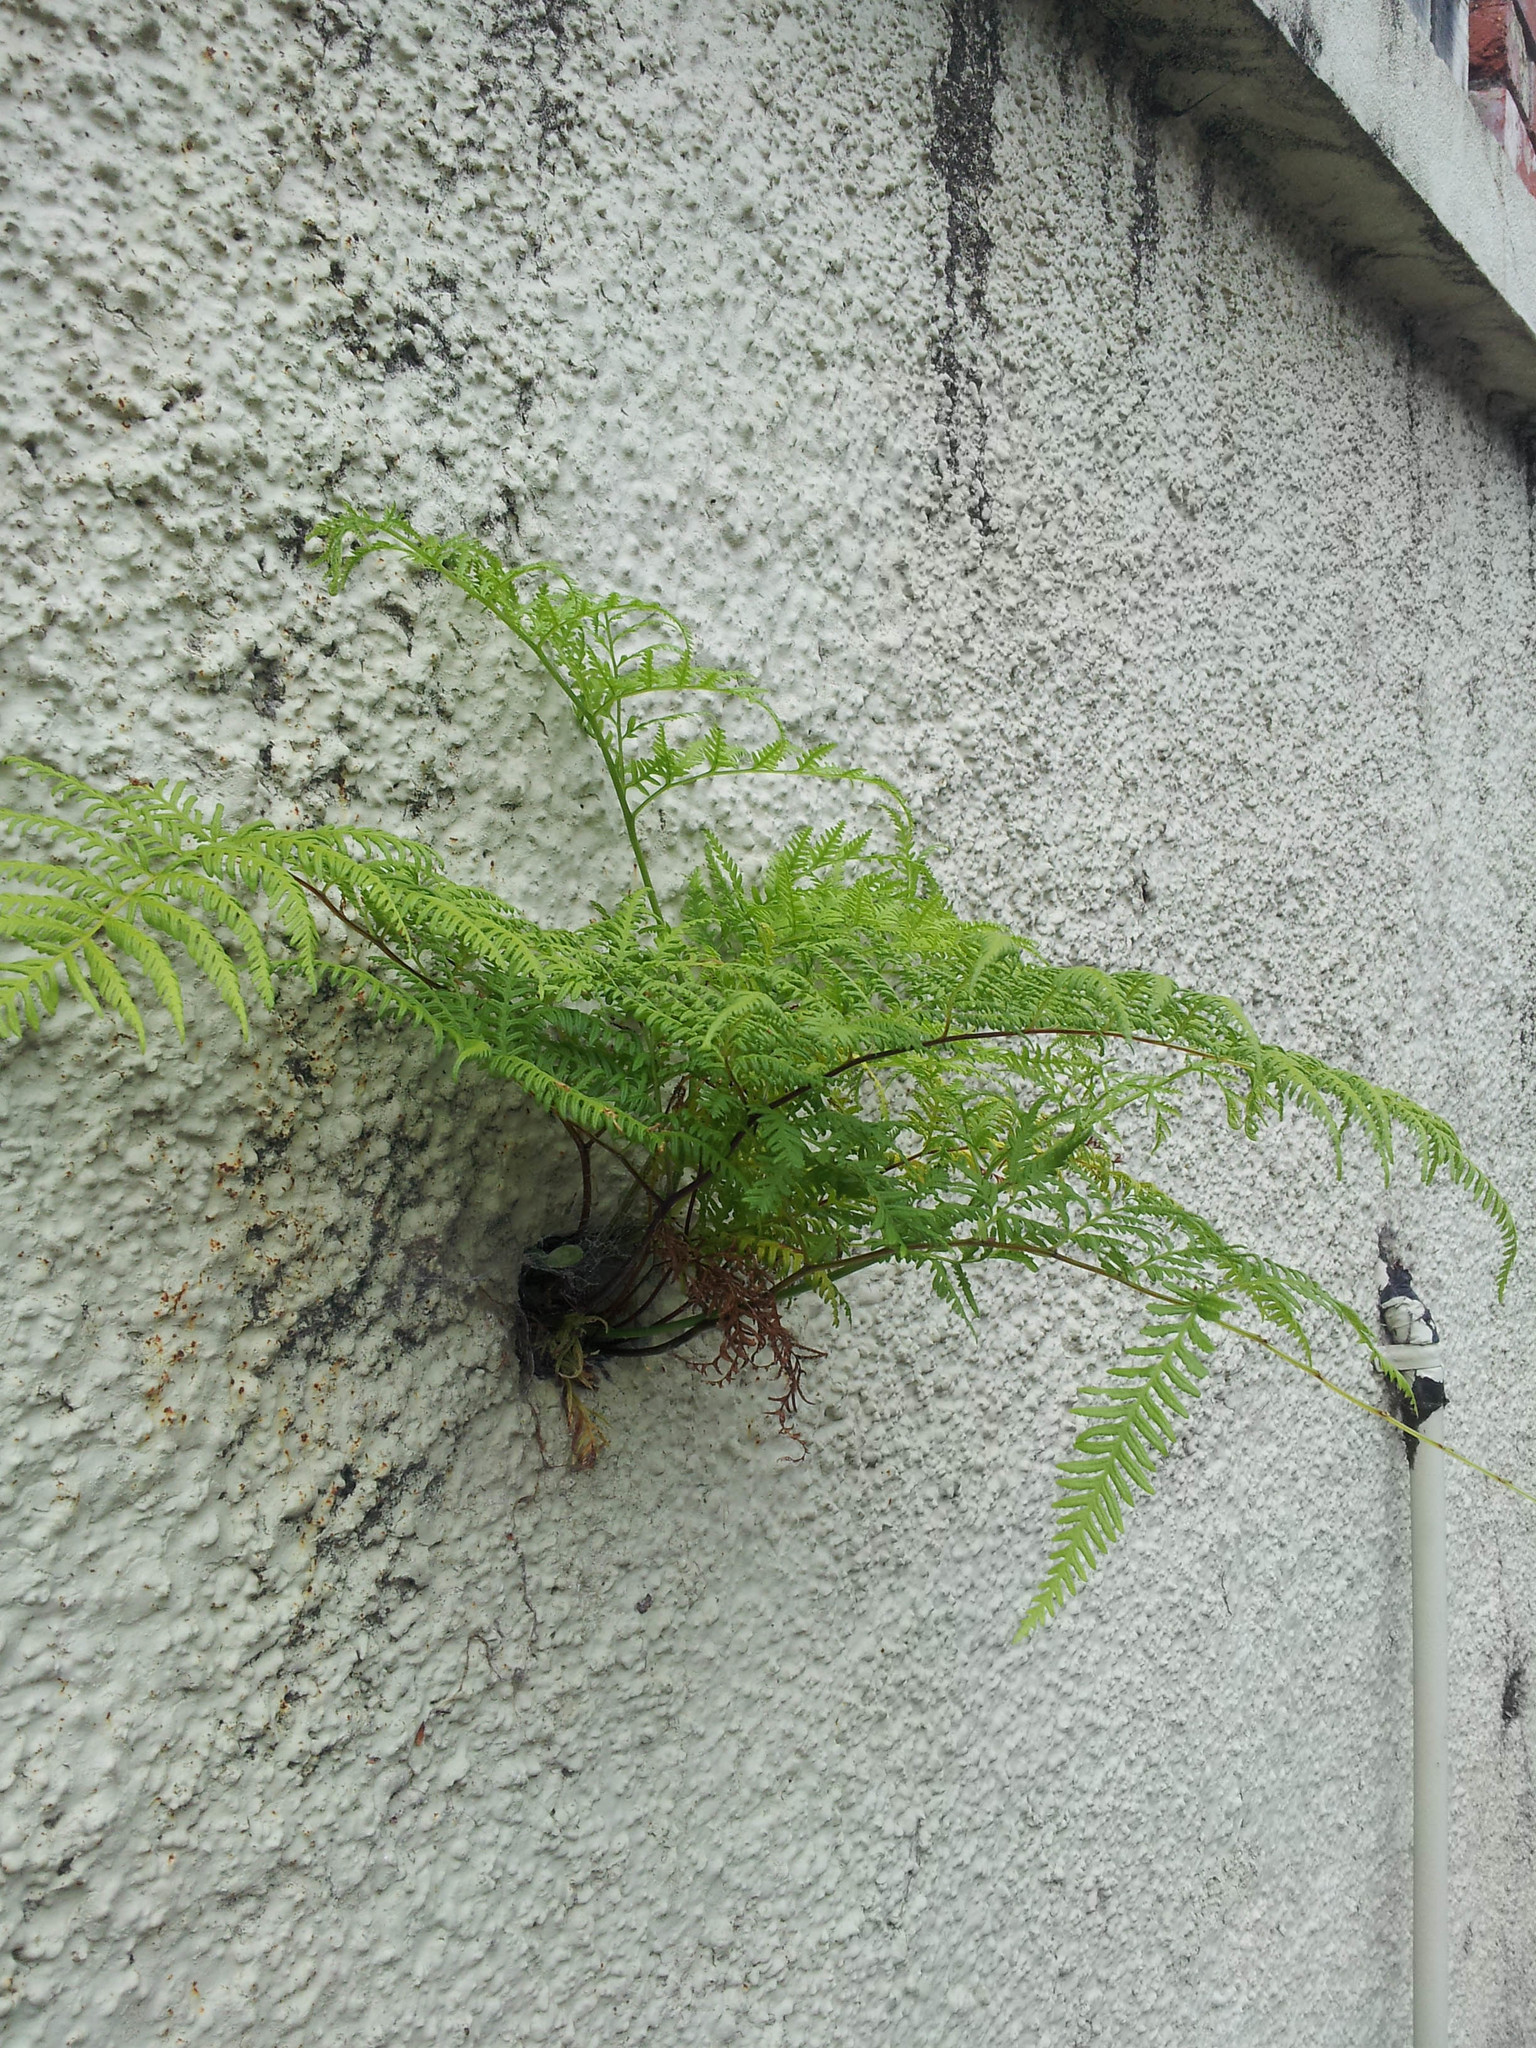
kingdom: Plantae
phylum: Tracheophyta
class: Polypodiopsida
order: Polypodiales
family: Pteridaceae
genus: Pteris
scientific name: Pteris tremula
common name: Australian brake
